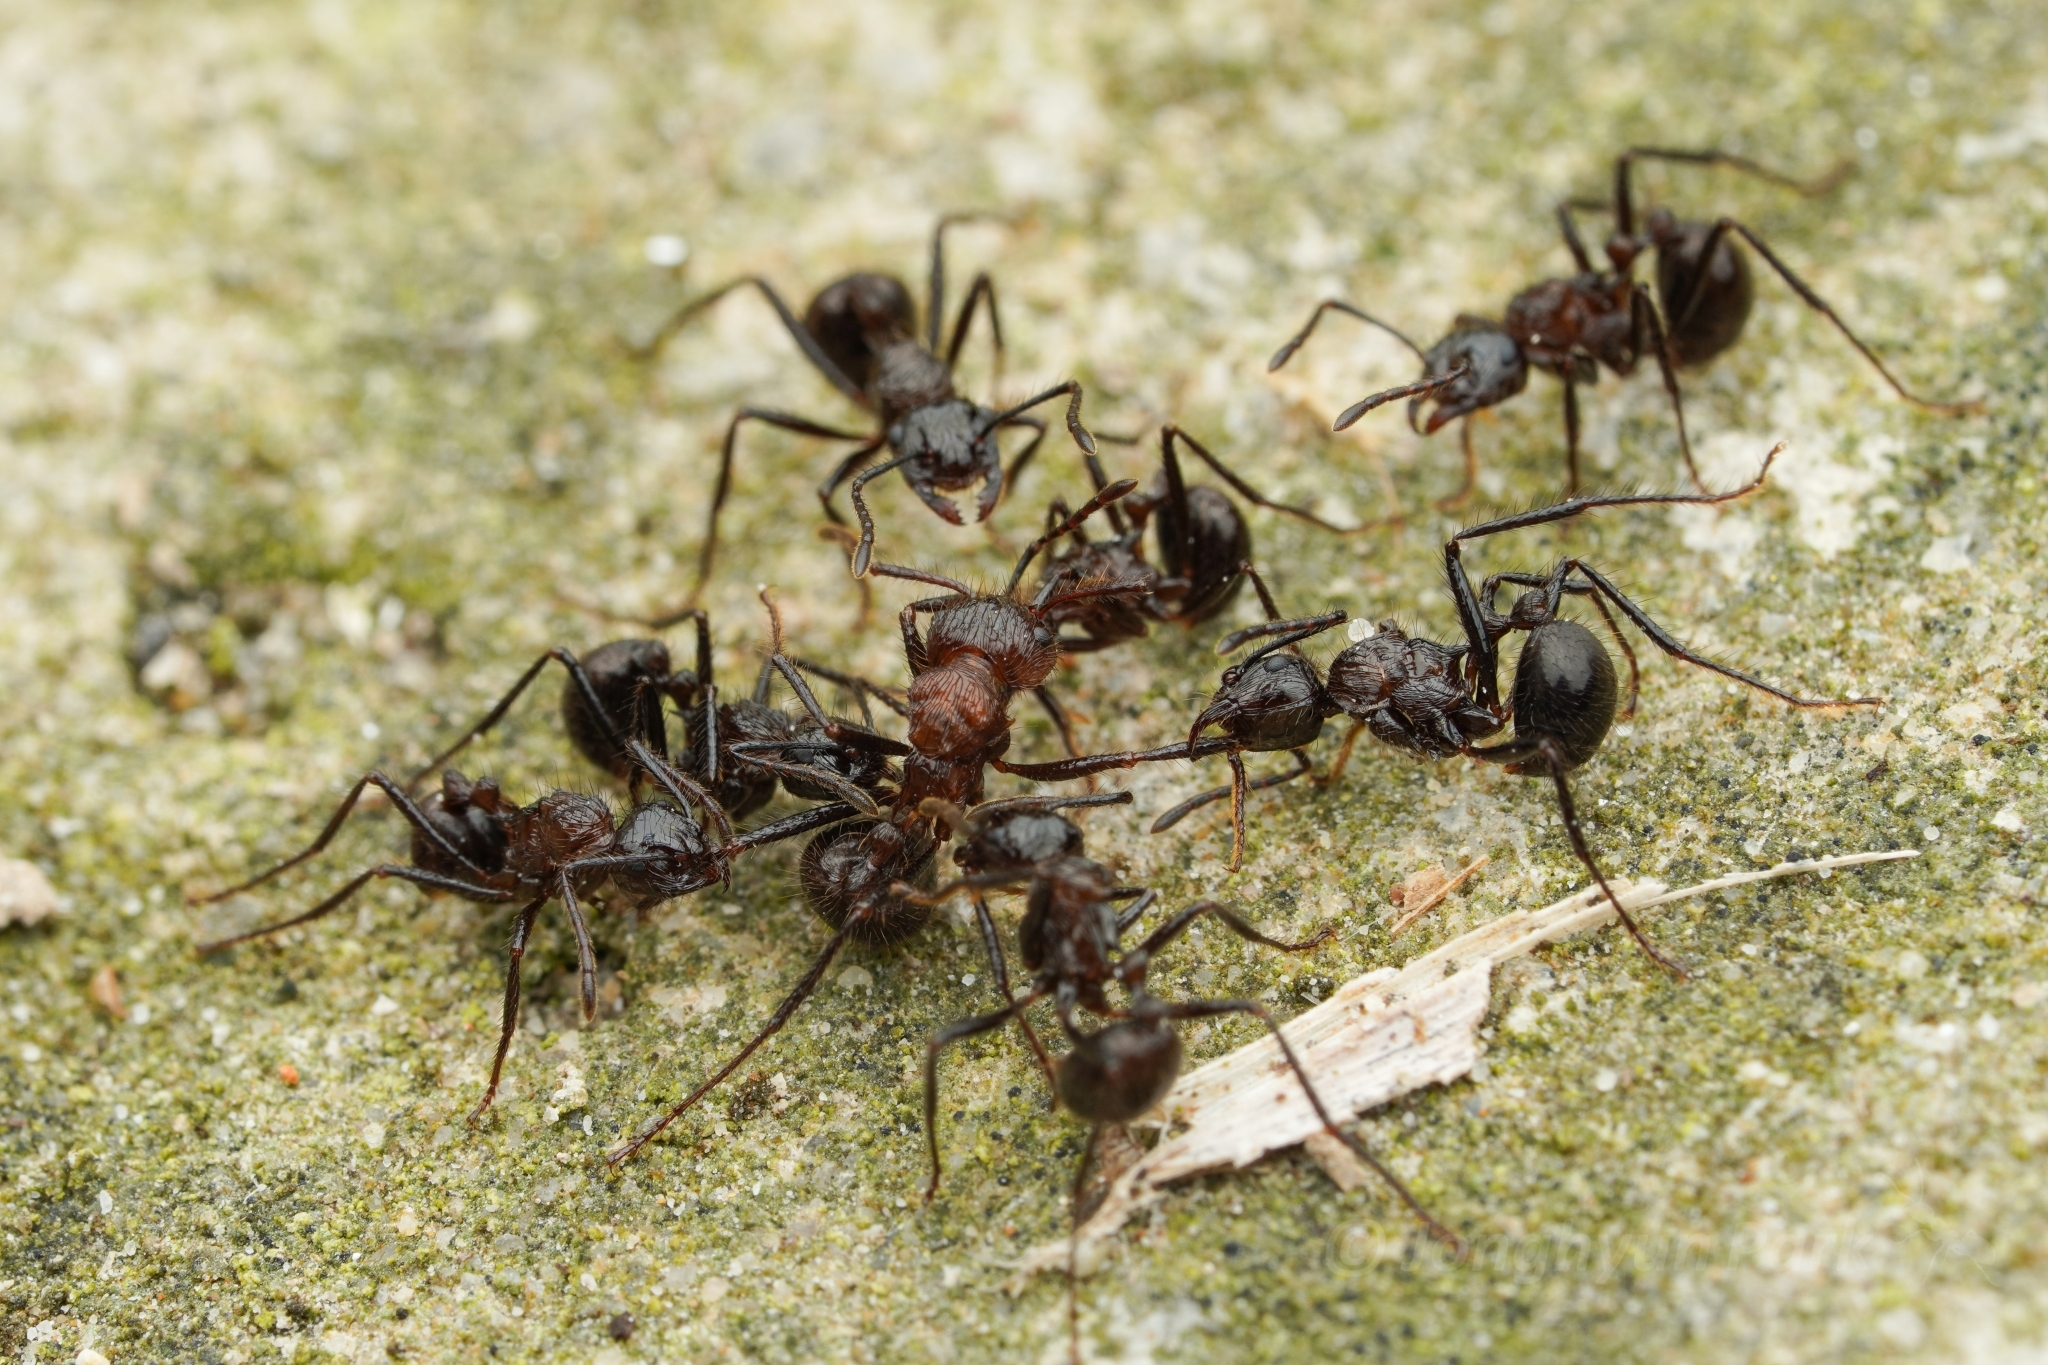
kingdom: Animalia
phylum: Arthropoda
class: Insecta
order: Hymenoptera
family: Formicidae
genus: Myrmicaria
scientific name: Myrmicaria
